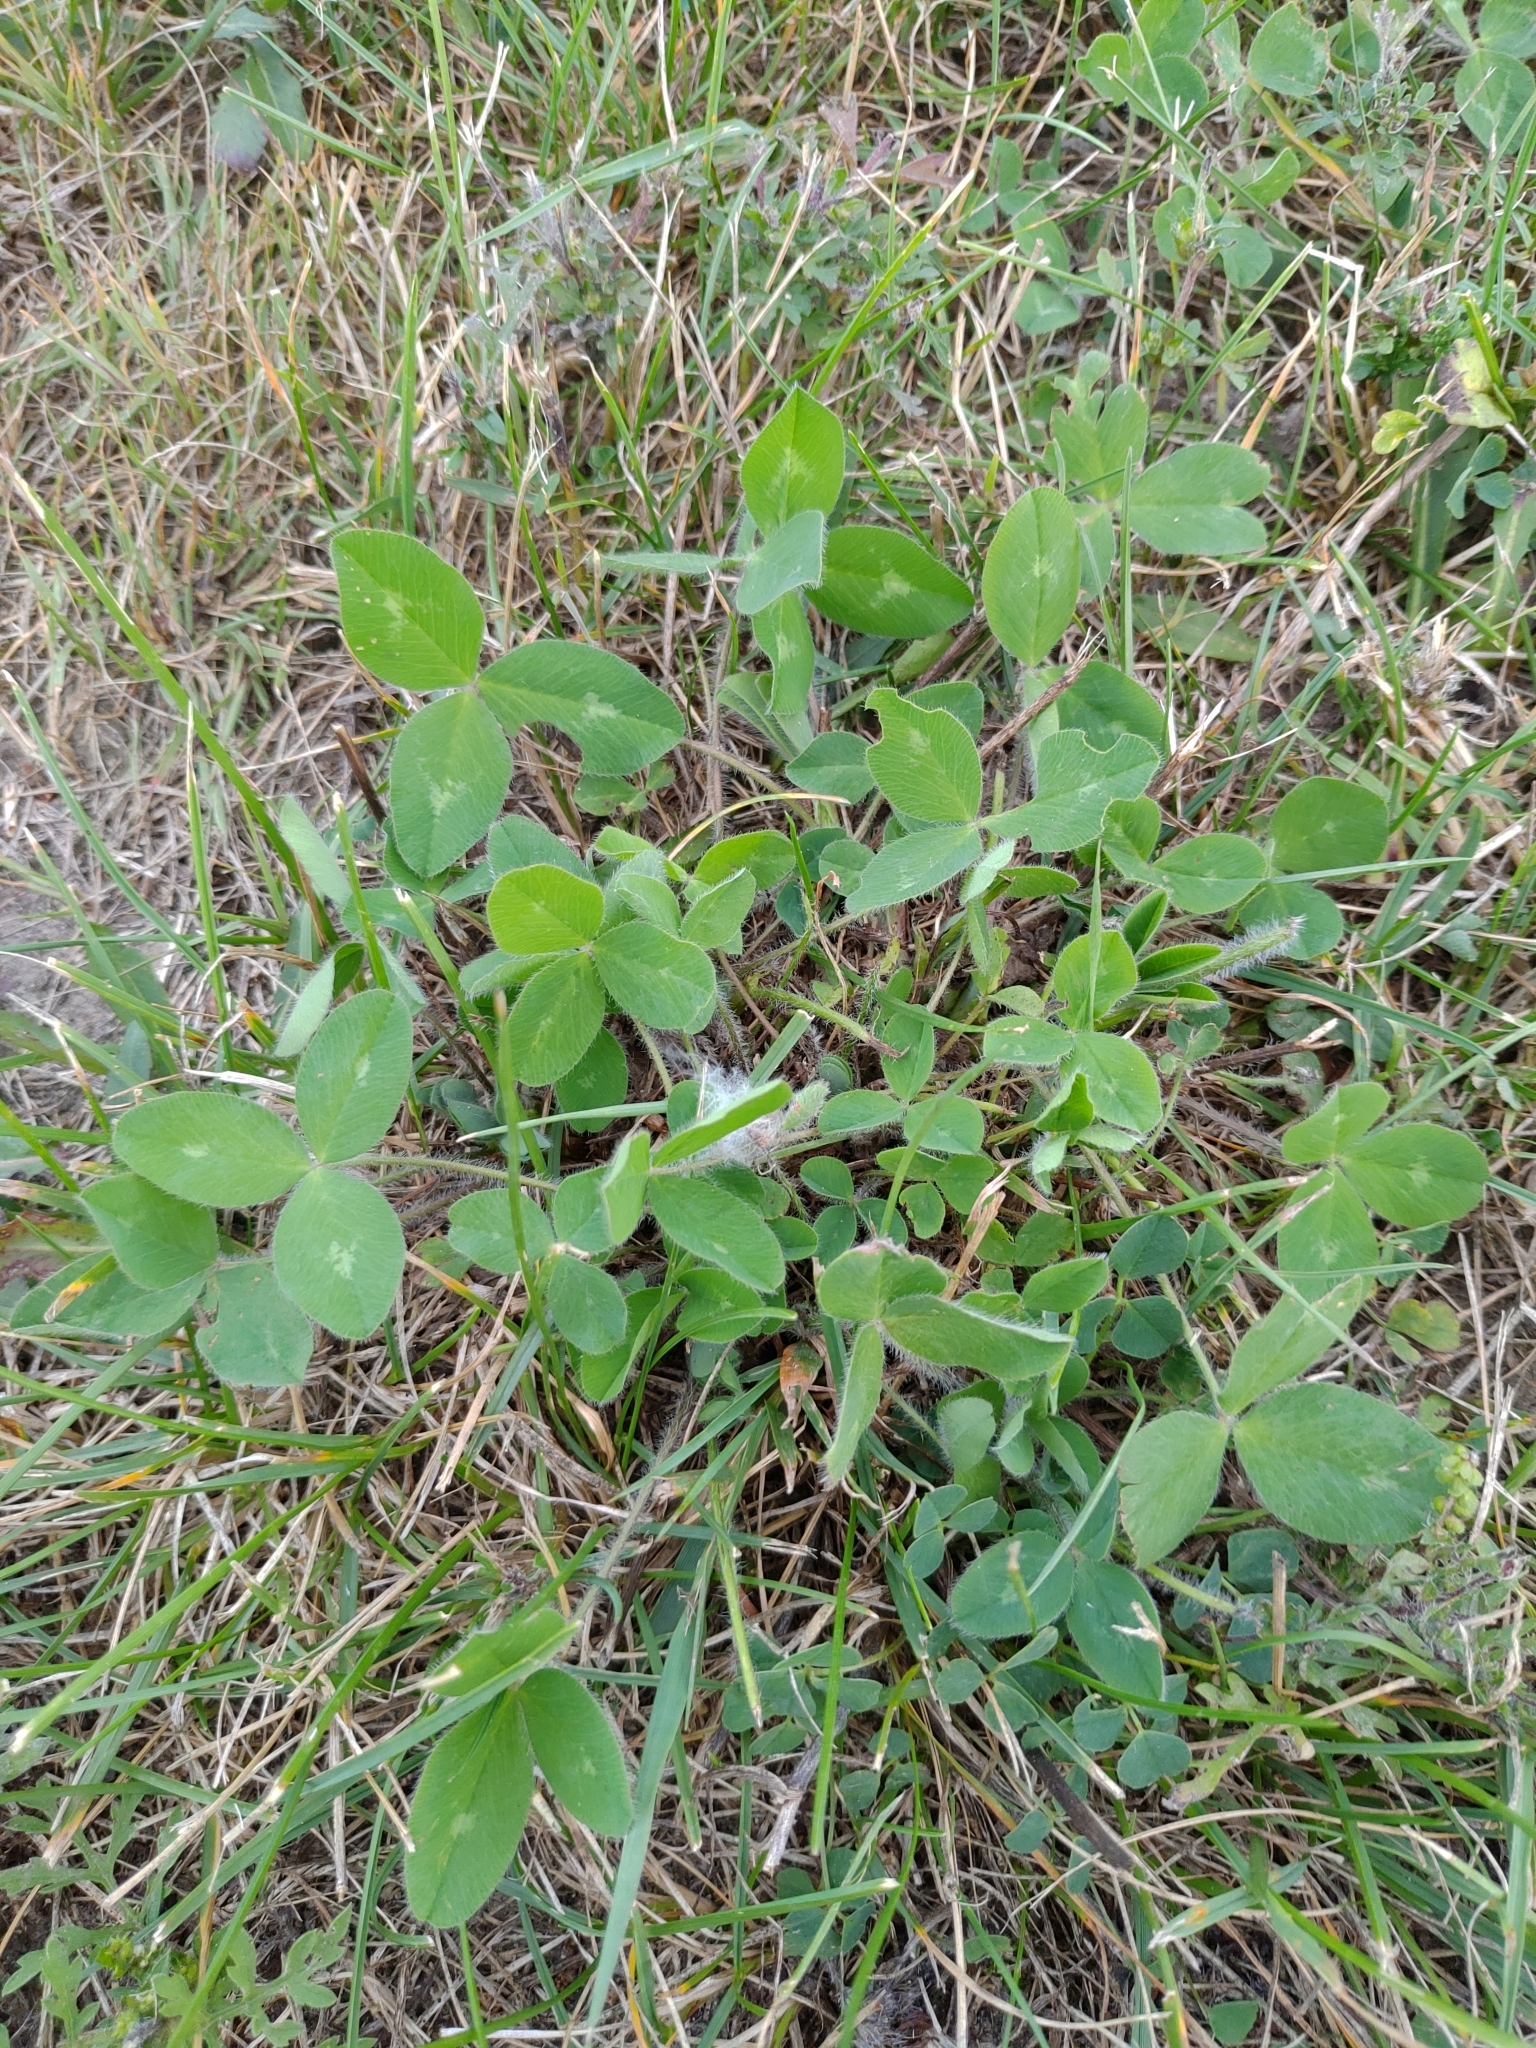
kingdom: Plantae
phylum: Tracheophyta
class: Magnoliopsida
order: Fabales
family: Fabaceae
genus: Trifolium
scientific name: Trifolium pratense
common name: Red clover
